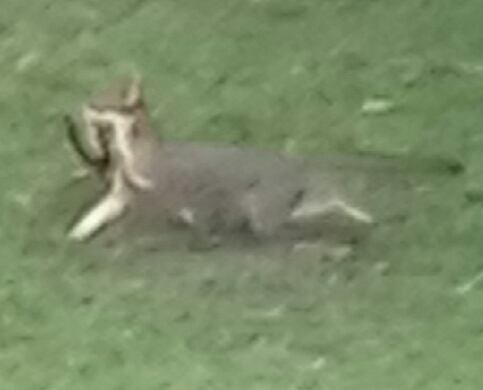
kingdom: Animalia
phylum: Chordata
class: Mammalia
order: Carnivora
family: Canidae
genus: Urocyon
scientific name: Urocyon cinereoargenteus
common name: Gray fox
